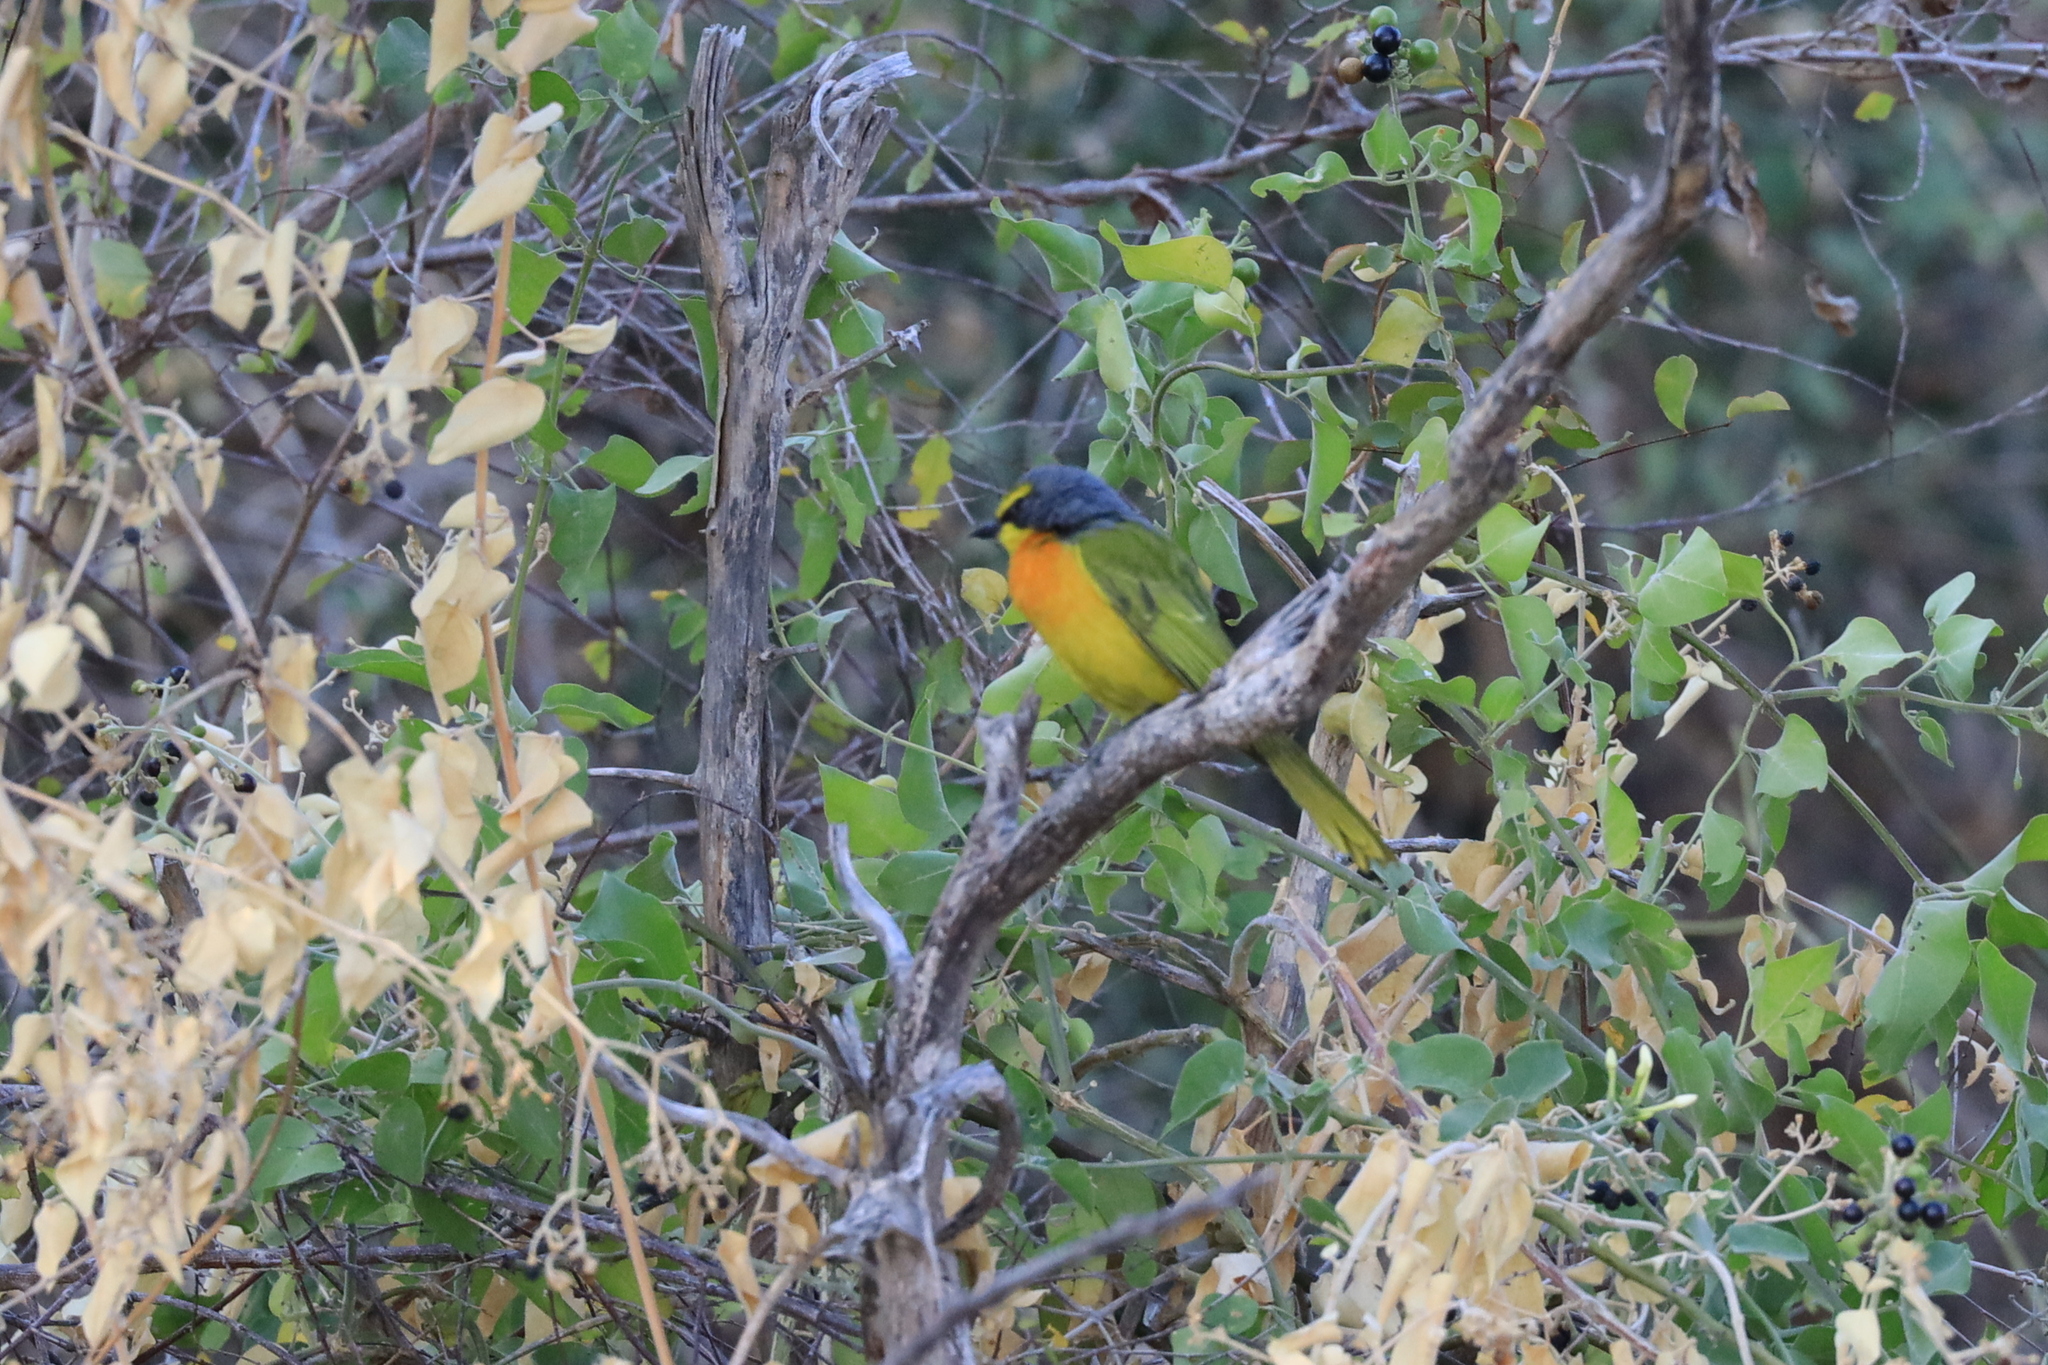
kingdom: Animalia
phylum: Chordata
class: Aves
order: Passeriformes
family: Malaconotidae
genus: Chlorophoneus
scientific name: Chlorophoneus sulfureopectus
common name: Orange-breasted bushshrike
